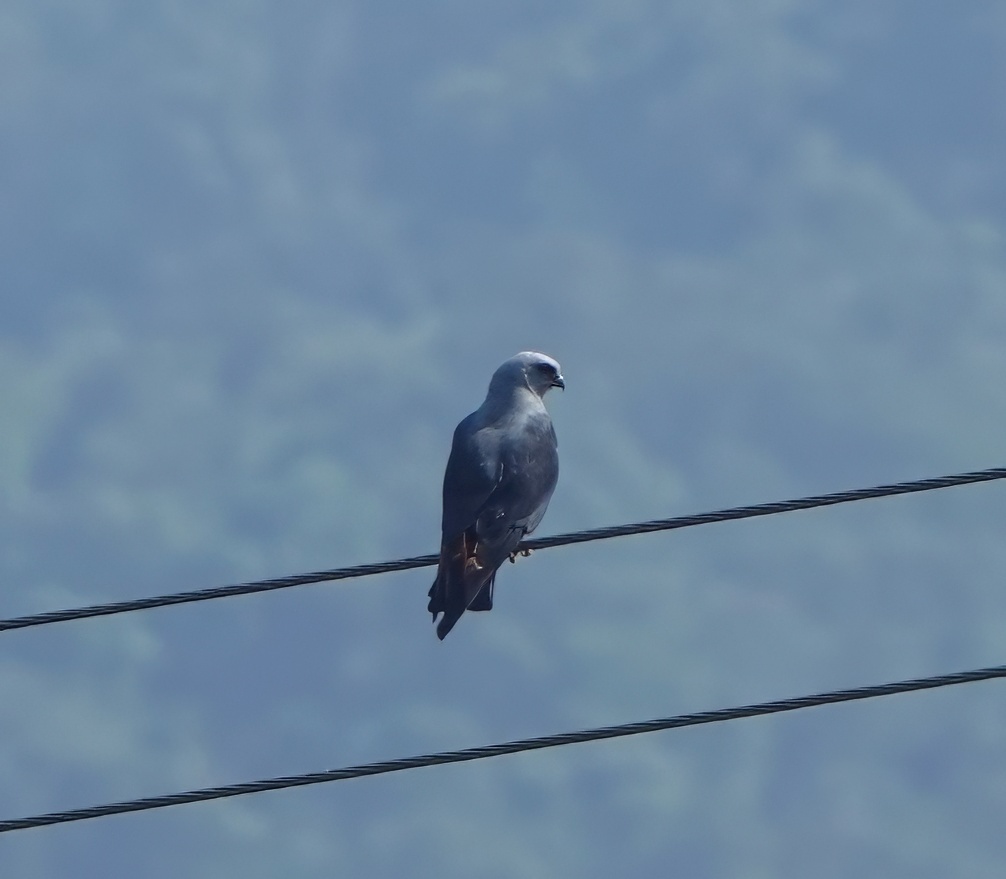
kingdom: Animalia
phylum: Chordata
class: Aves
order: Accipitriformes
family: Accipitridae
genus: Ictinia
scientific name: Ictinia plumbea
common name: Plumbeous kite
